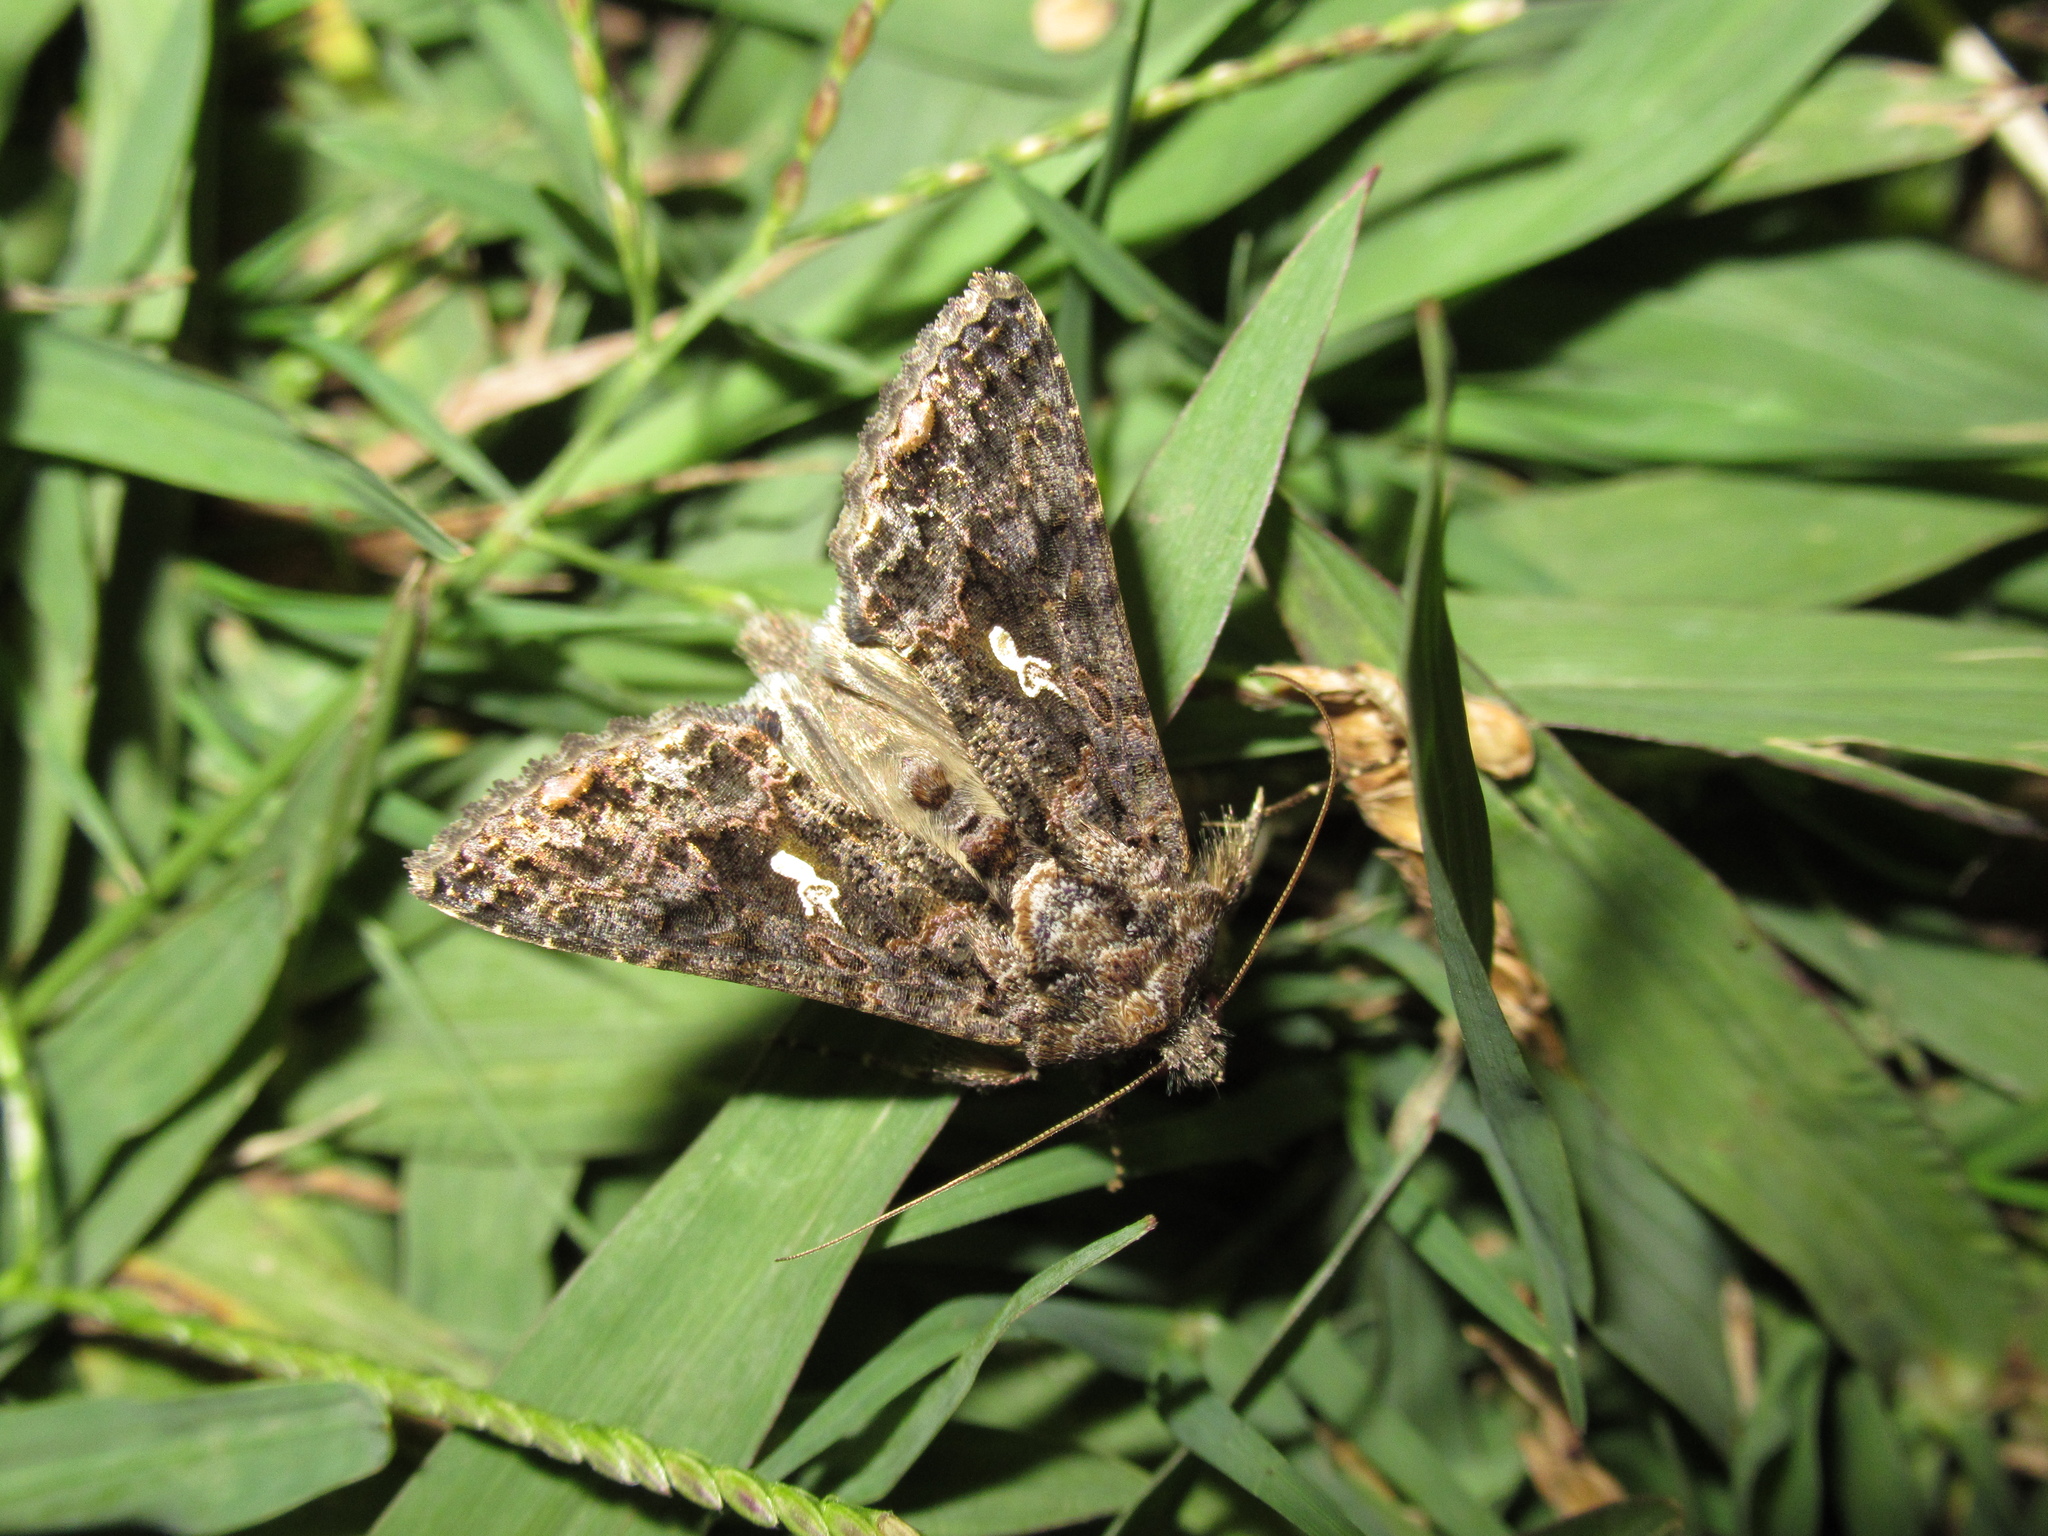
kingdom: Animalia
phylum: Arthropoda
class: Insecta
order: Lepidoptera
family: Noctuidae
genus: Ctenoplusia
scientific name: Ctenoplusia limbirena
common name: Scar bank gem
